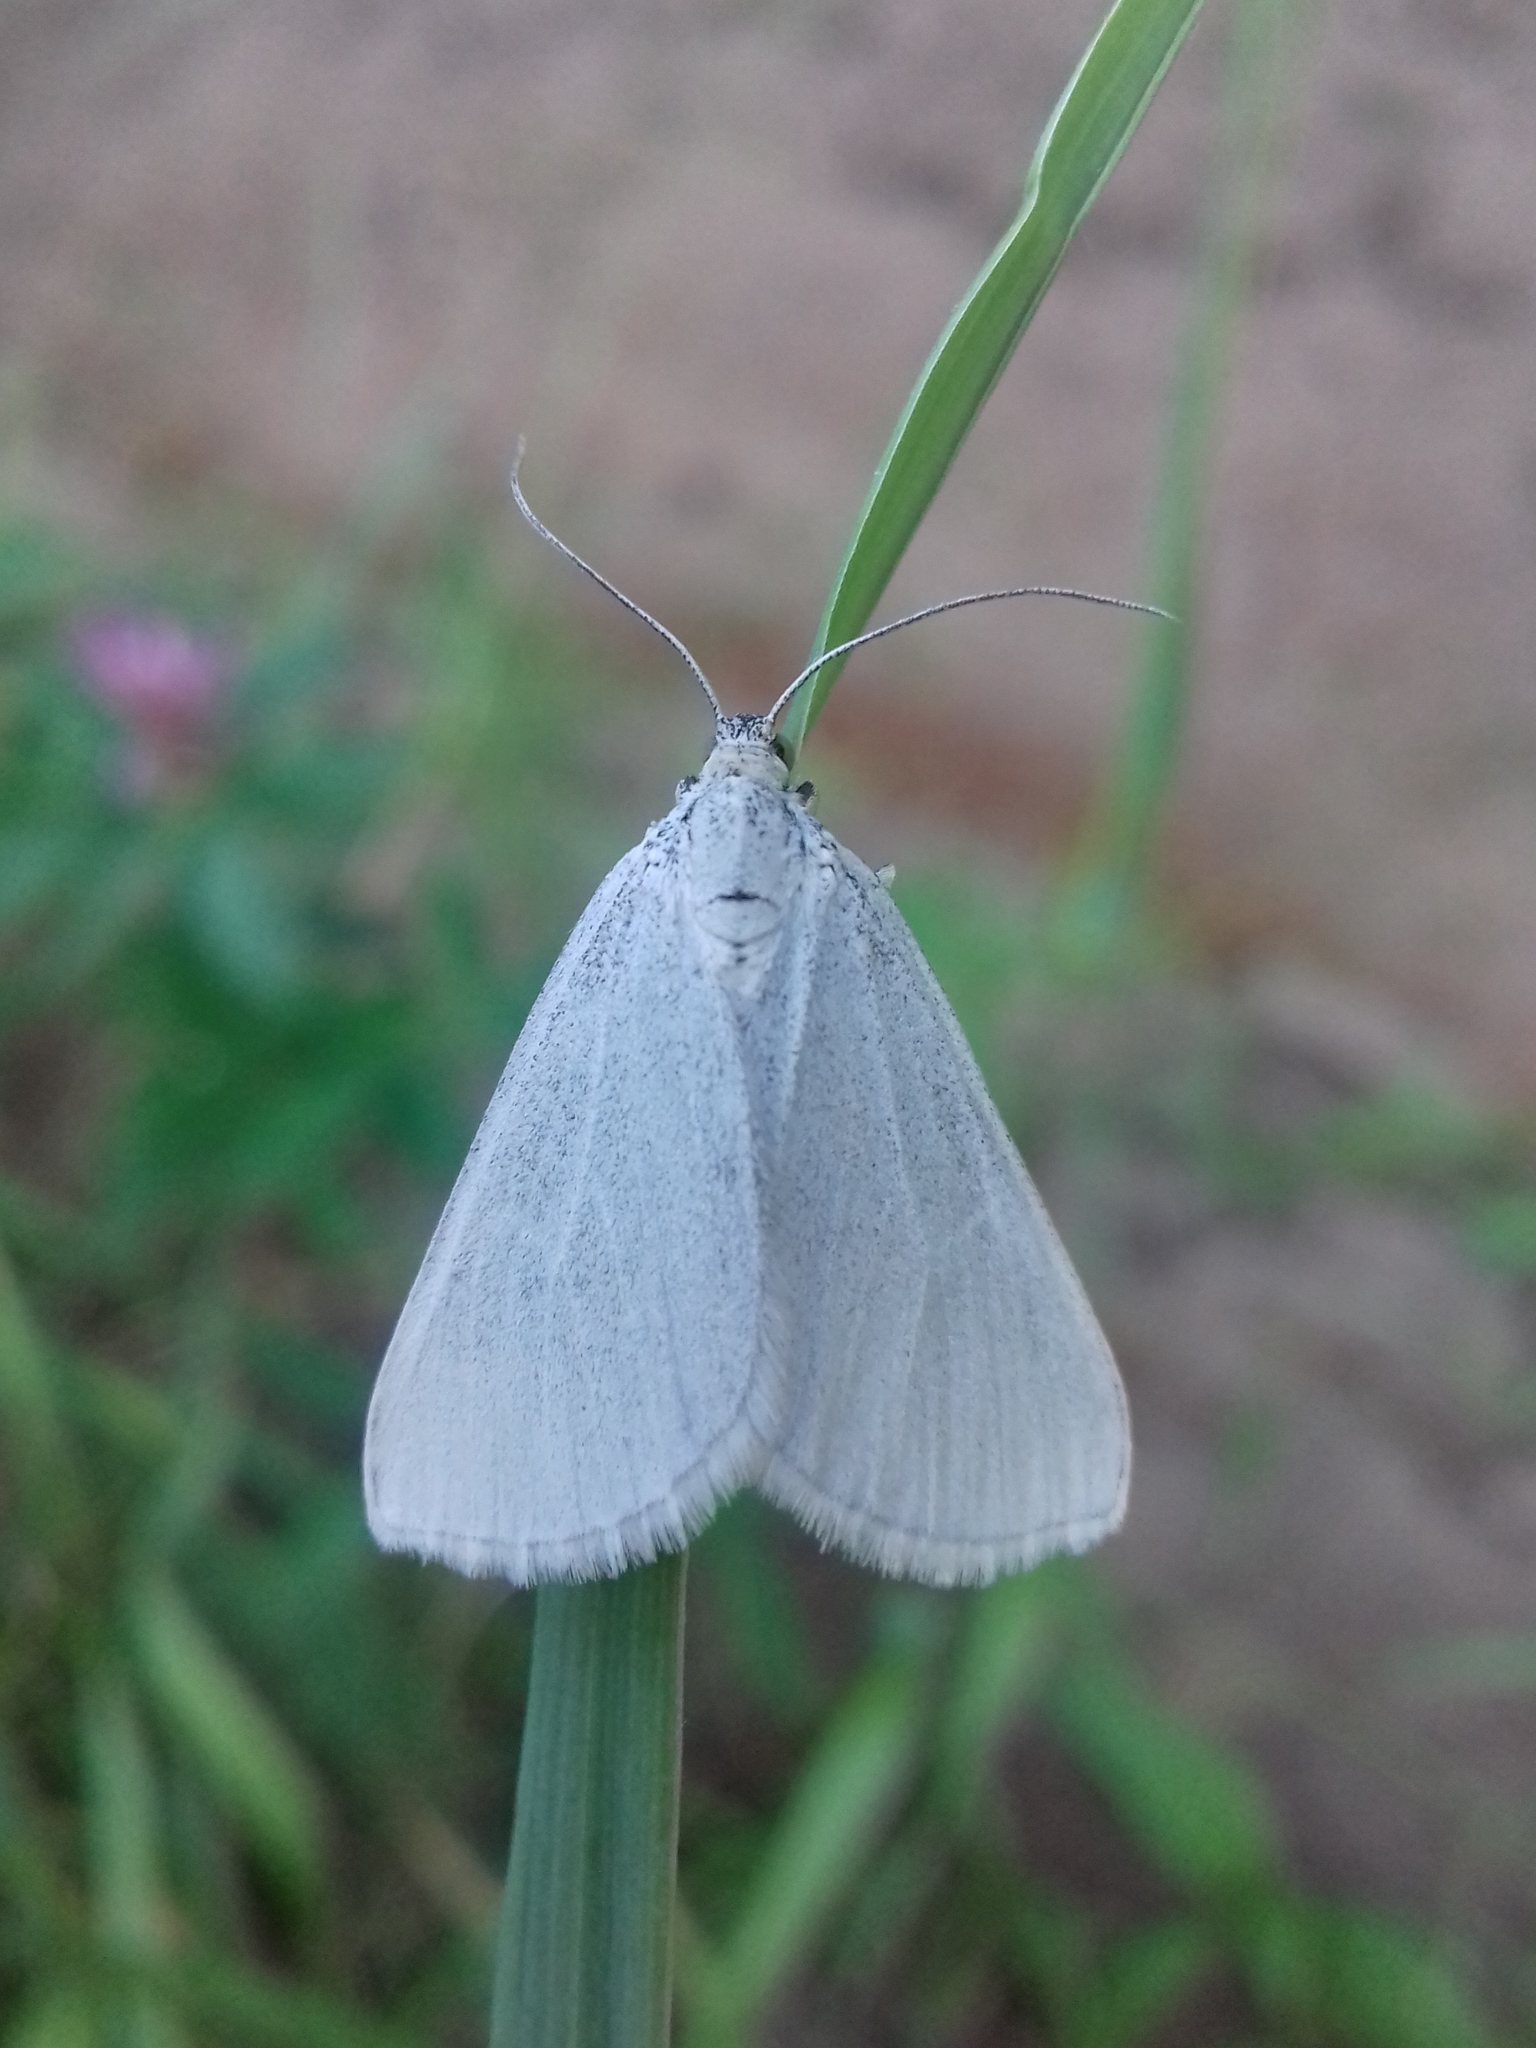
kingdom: Animalia
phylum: Arthropoda
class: Insecta
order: Lepidoptera
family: Geometridae
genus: Lithostege
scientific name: Lithostege farinata
